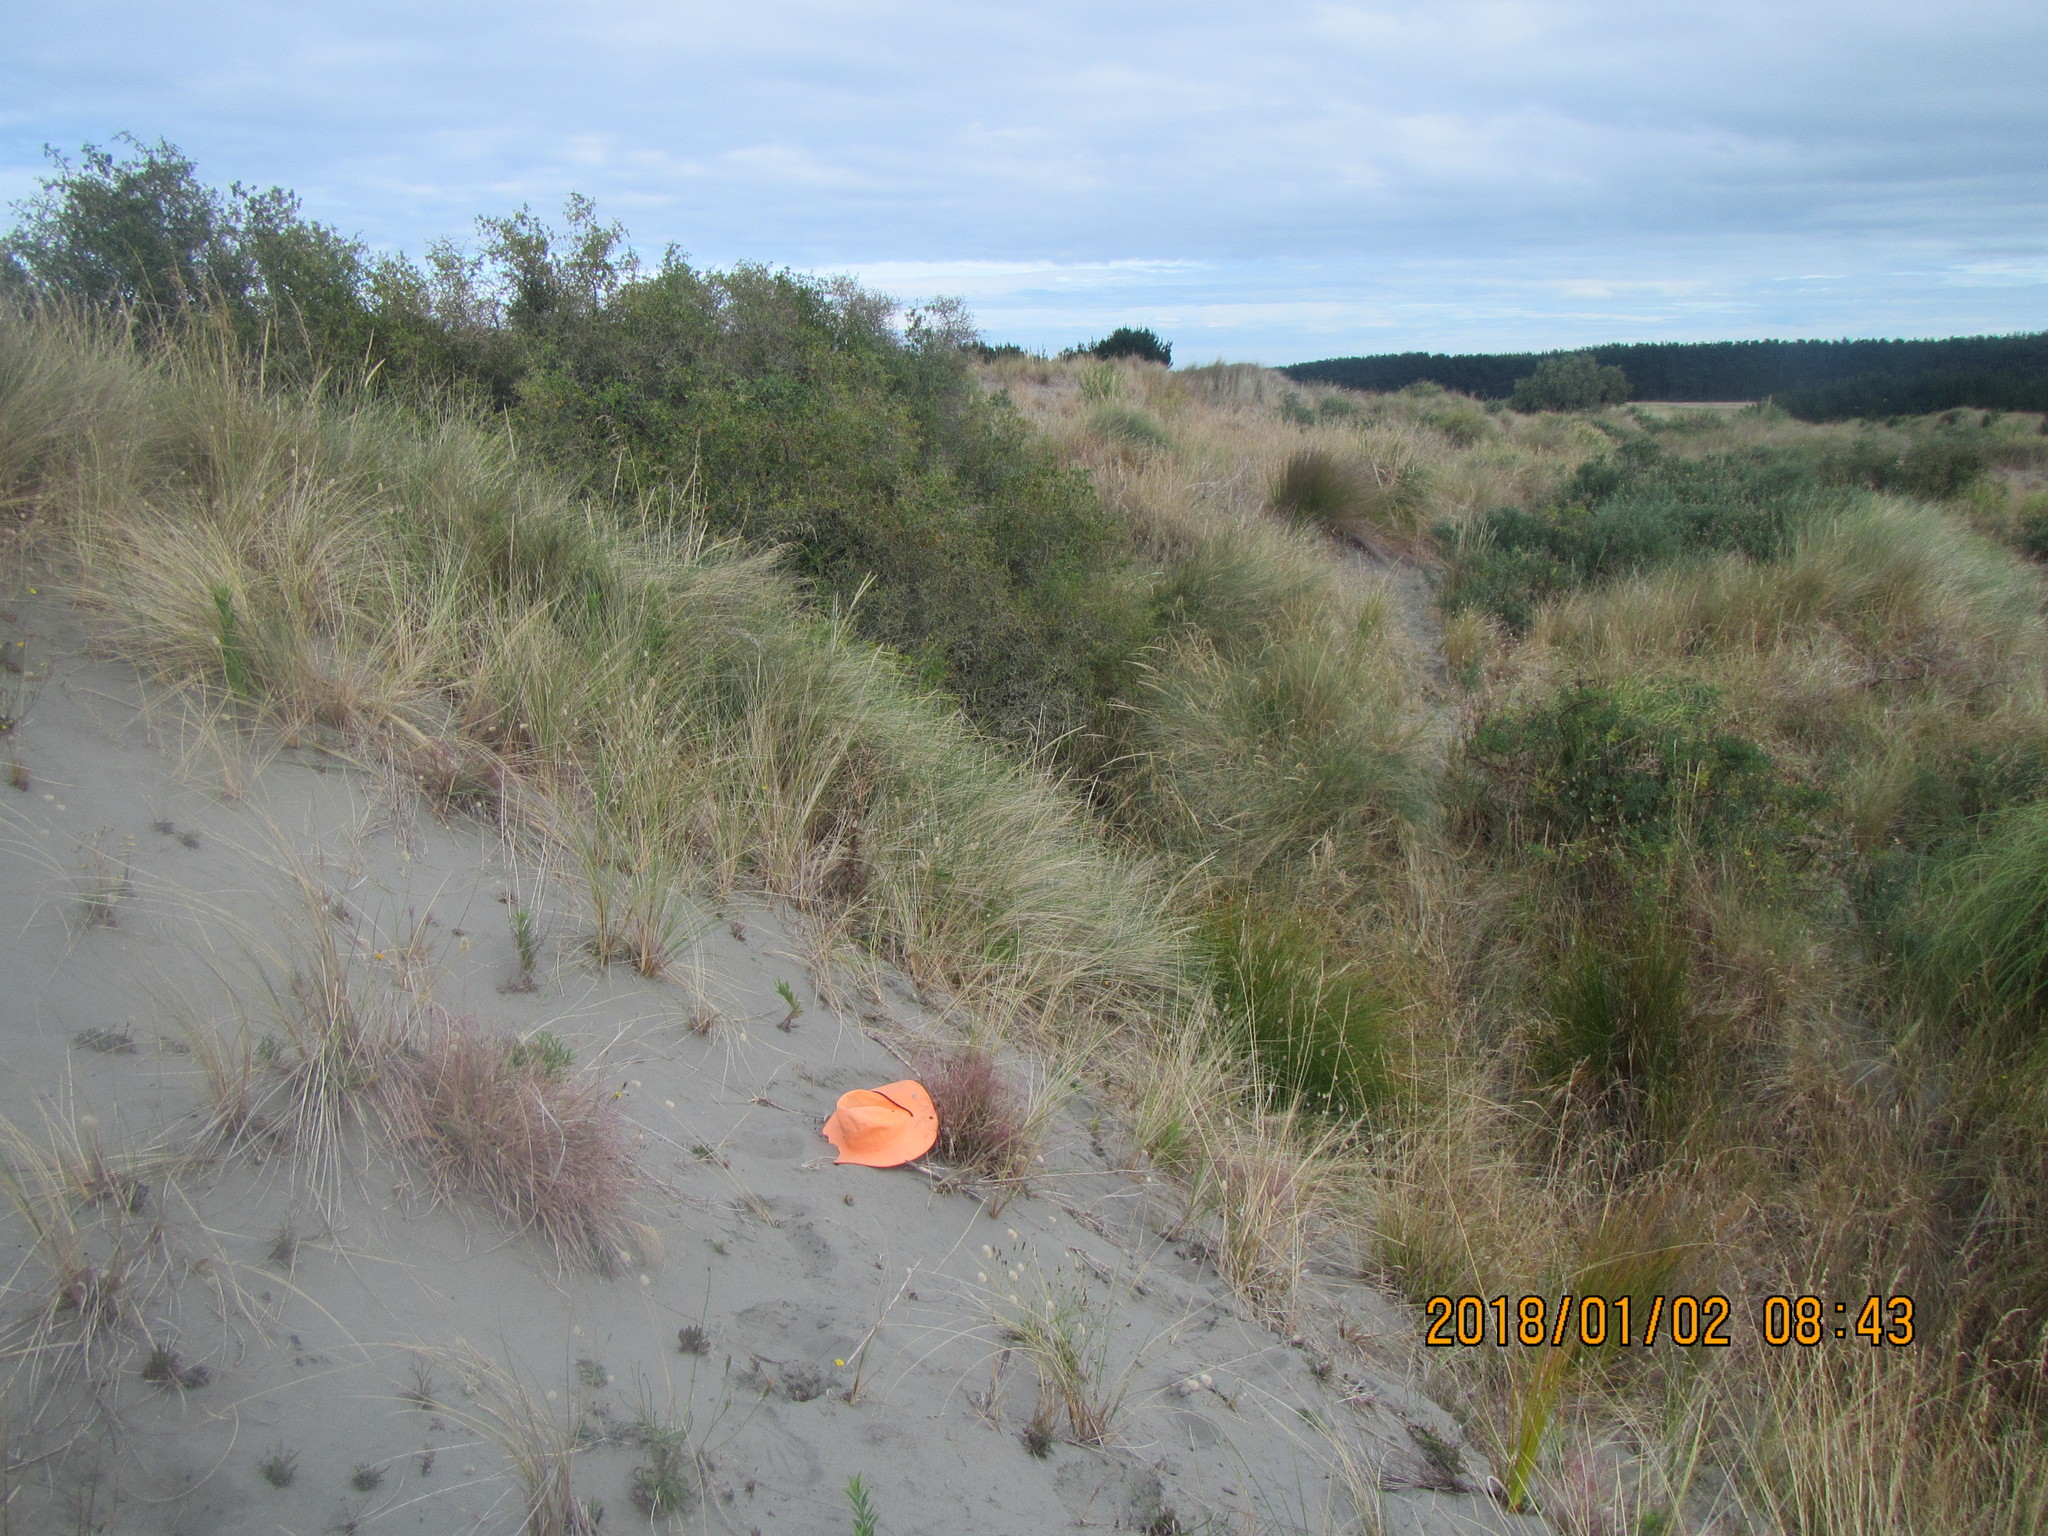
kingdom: Plantae
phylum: Tracheophyta
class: Liliopsida
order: Poales
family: Poaceae
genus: Lachnagrostis
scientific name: Lachnagrostis billardierei
